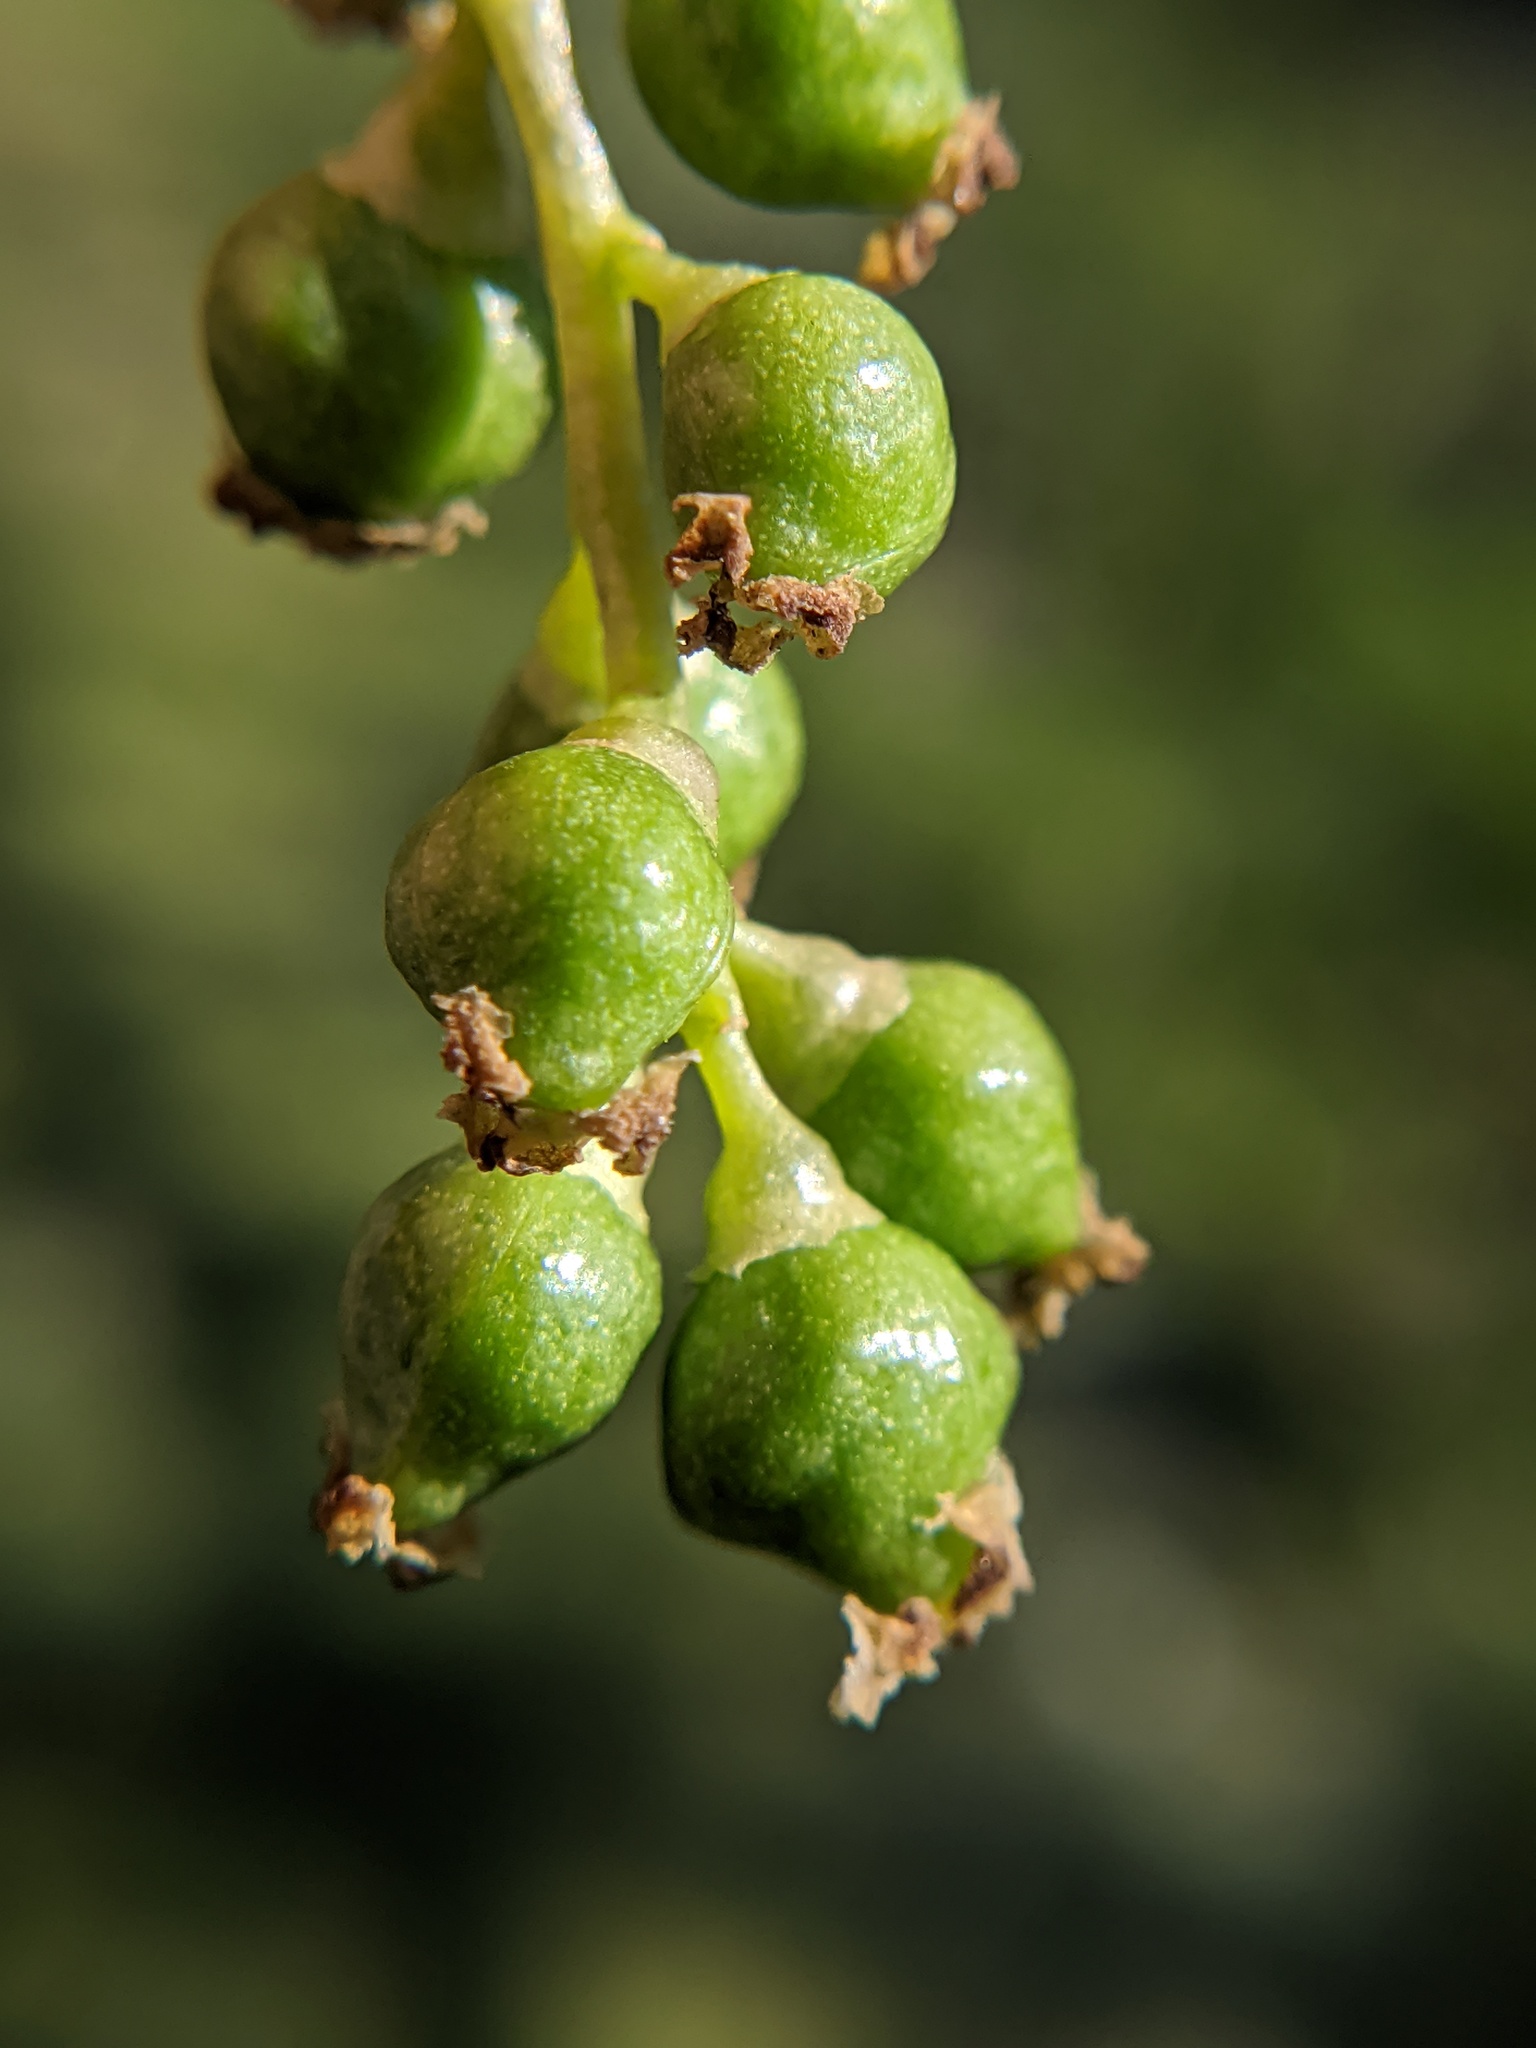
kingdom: Plantae
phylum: Tracheophyta
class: Magnoliopsida
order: Malpighiales
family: Salicaceae
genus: Populus
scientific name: Populus deltoides
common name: Eastern cottonwood
